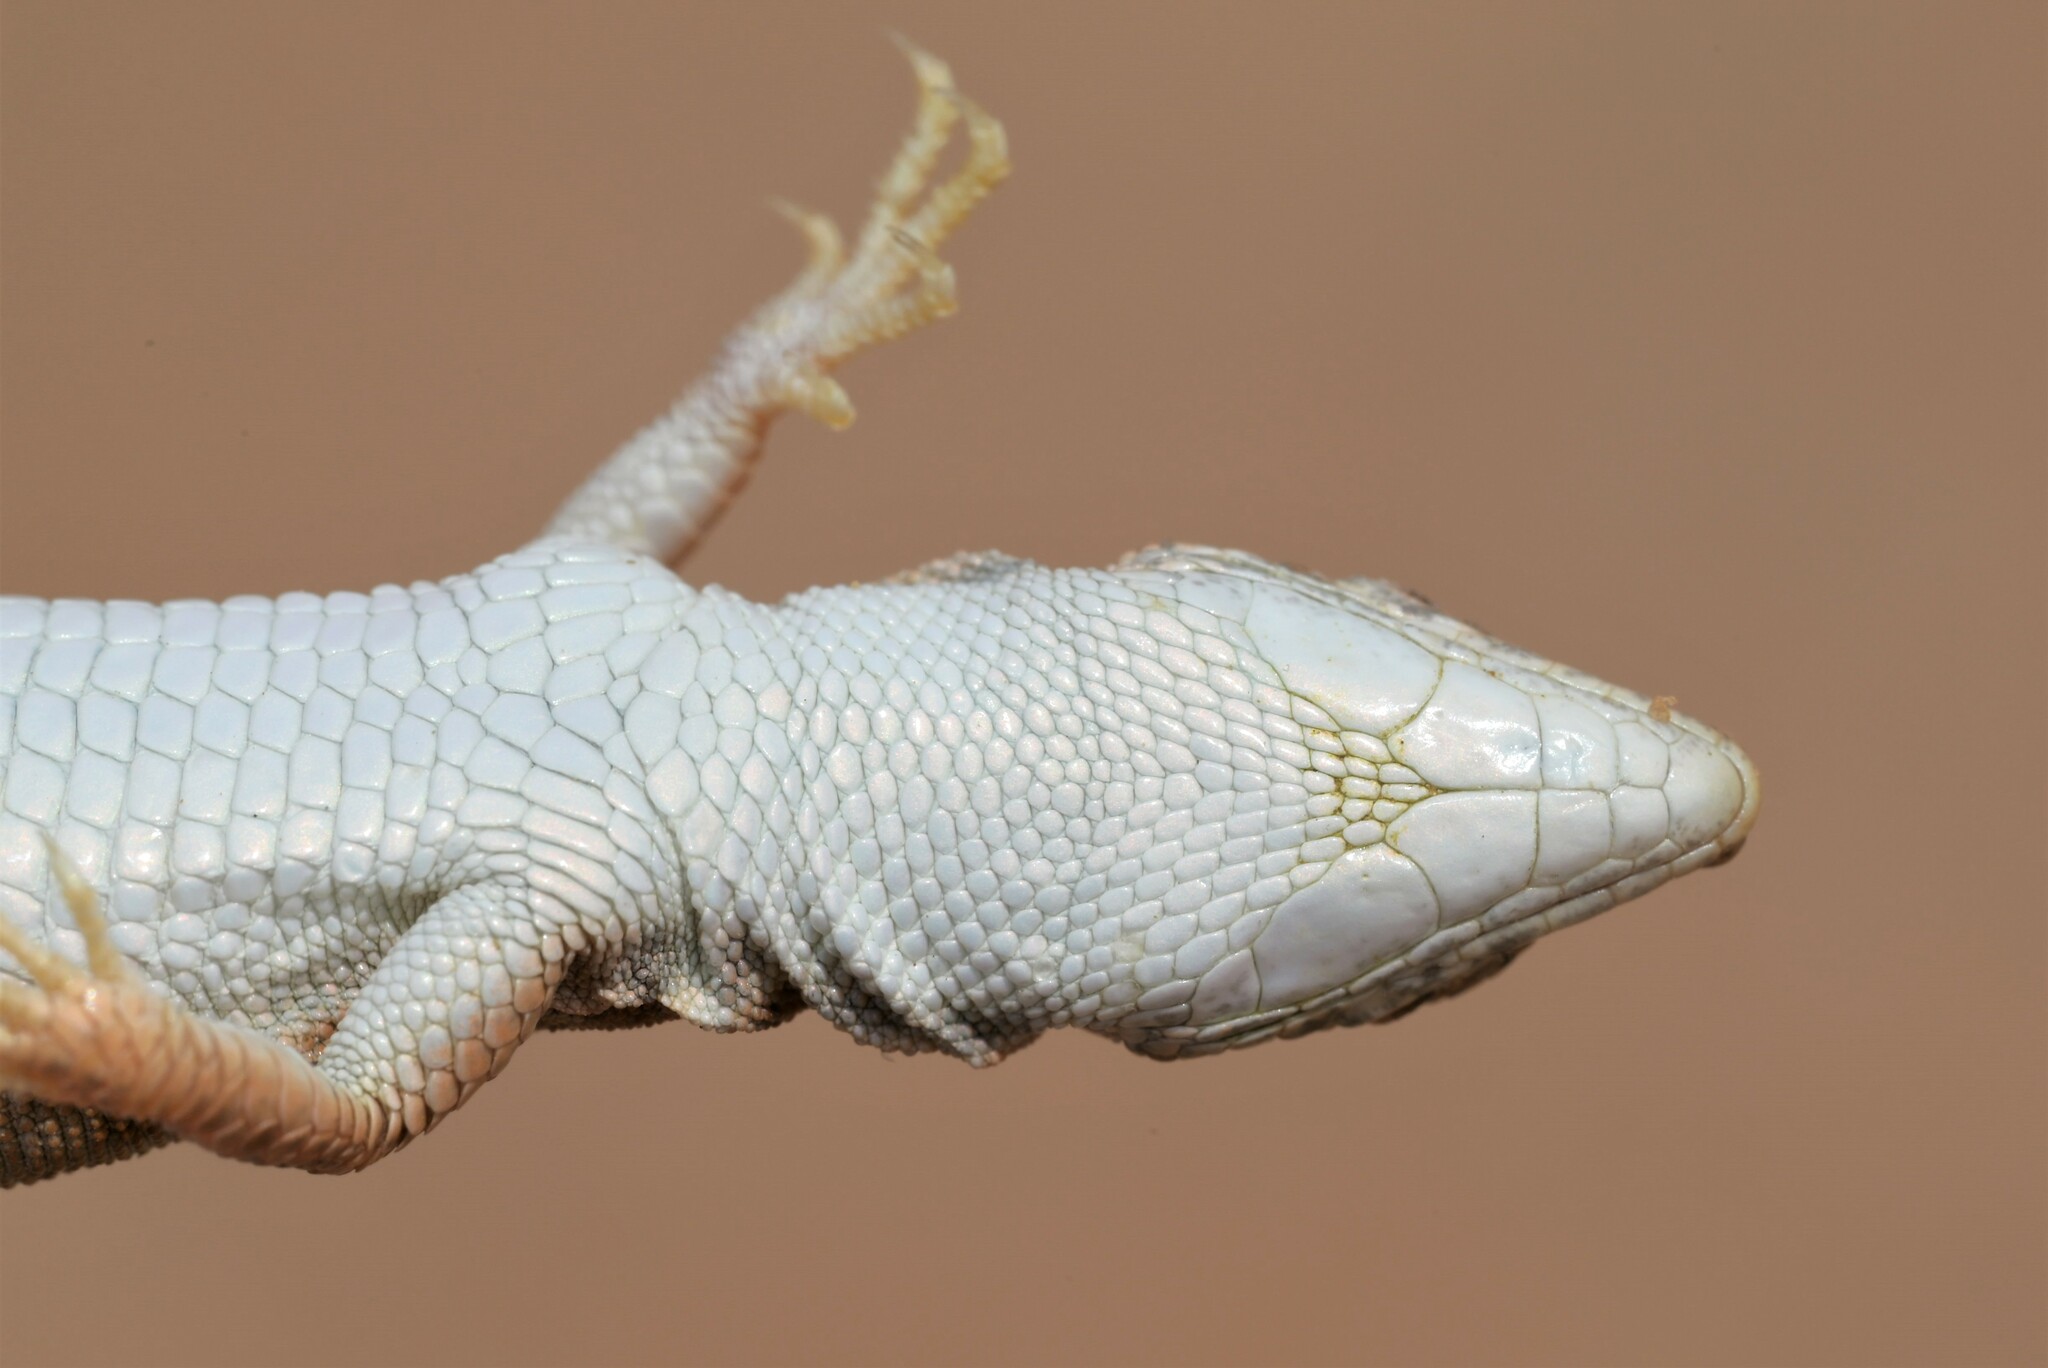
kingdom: Animalia
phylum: Chordata
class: Squamata
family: Lacertidae
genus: Mesalina
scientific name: Mesalina brevirostris
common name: Blanford's short-nosed desert lizard
